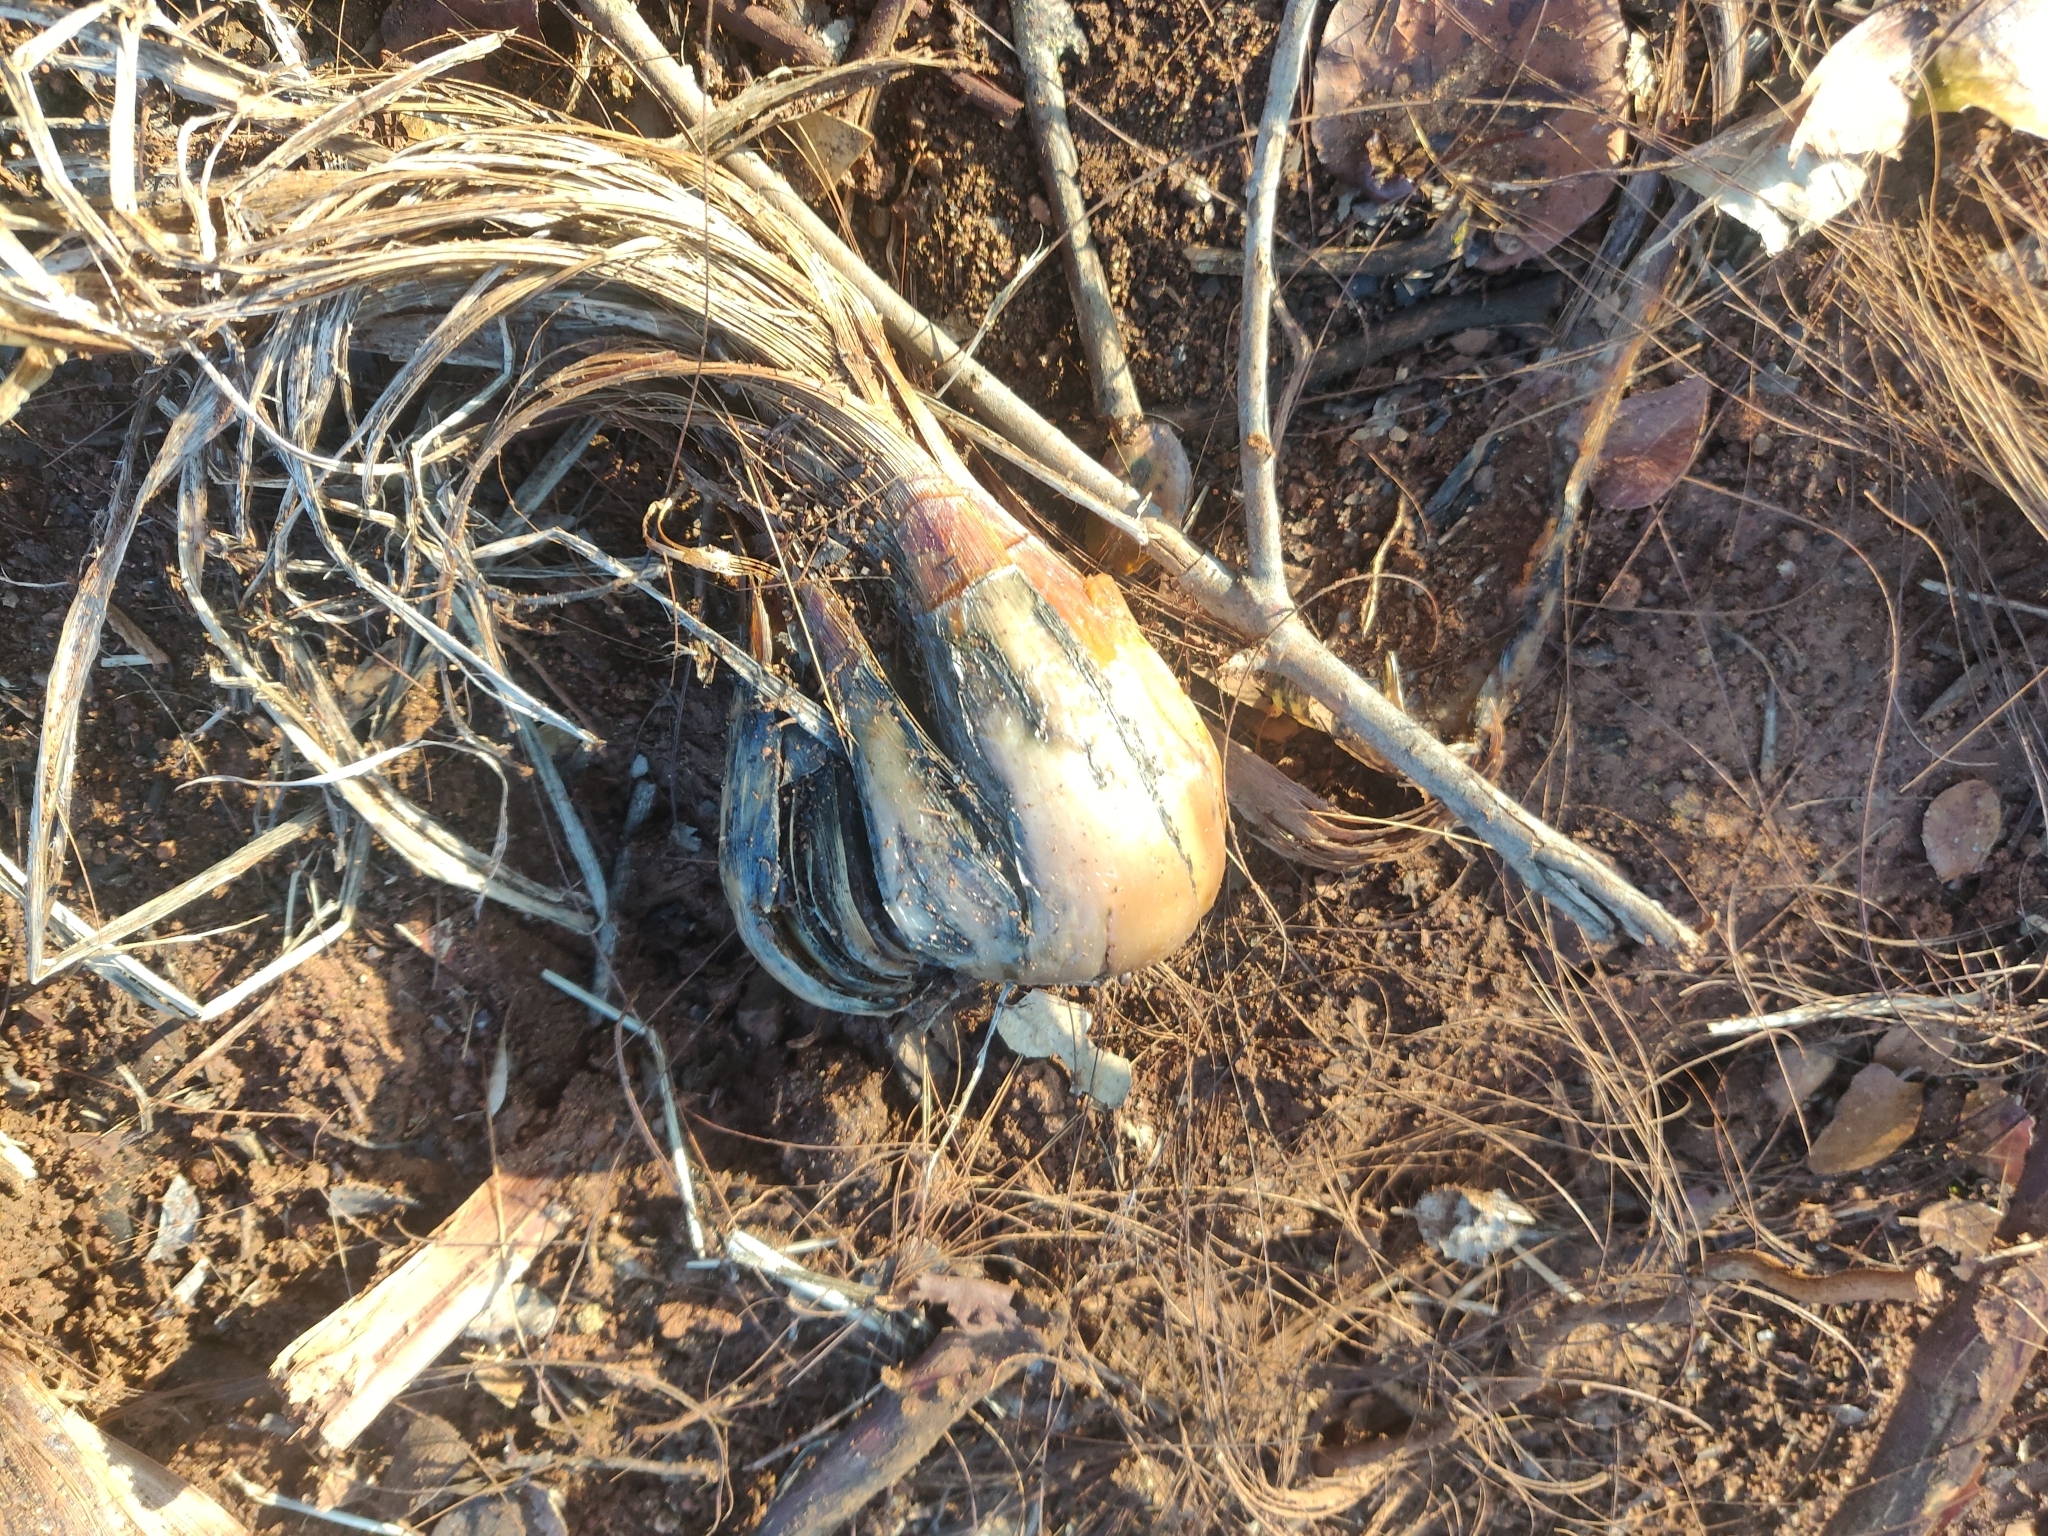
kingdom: Plantae
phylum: Tracheophyta
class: Liliopsida
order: Asparagales
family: Asparagaceae
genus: Chlorogalum
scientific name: Chlorogalum pomeridianum
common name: Amole
